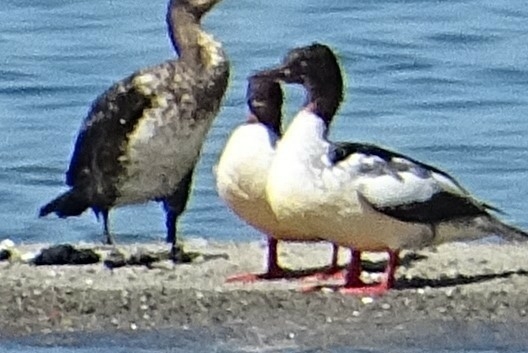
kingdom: Animalia
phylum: Chordata
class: Aves
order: Anseriformes
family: Anatidae
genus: Mergus
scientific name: Mergus merganser
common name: Common merganser
